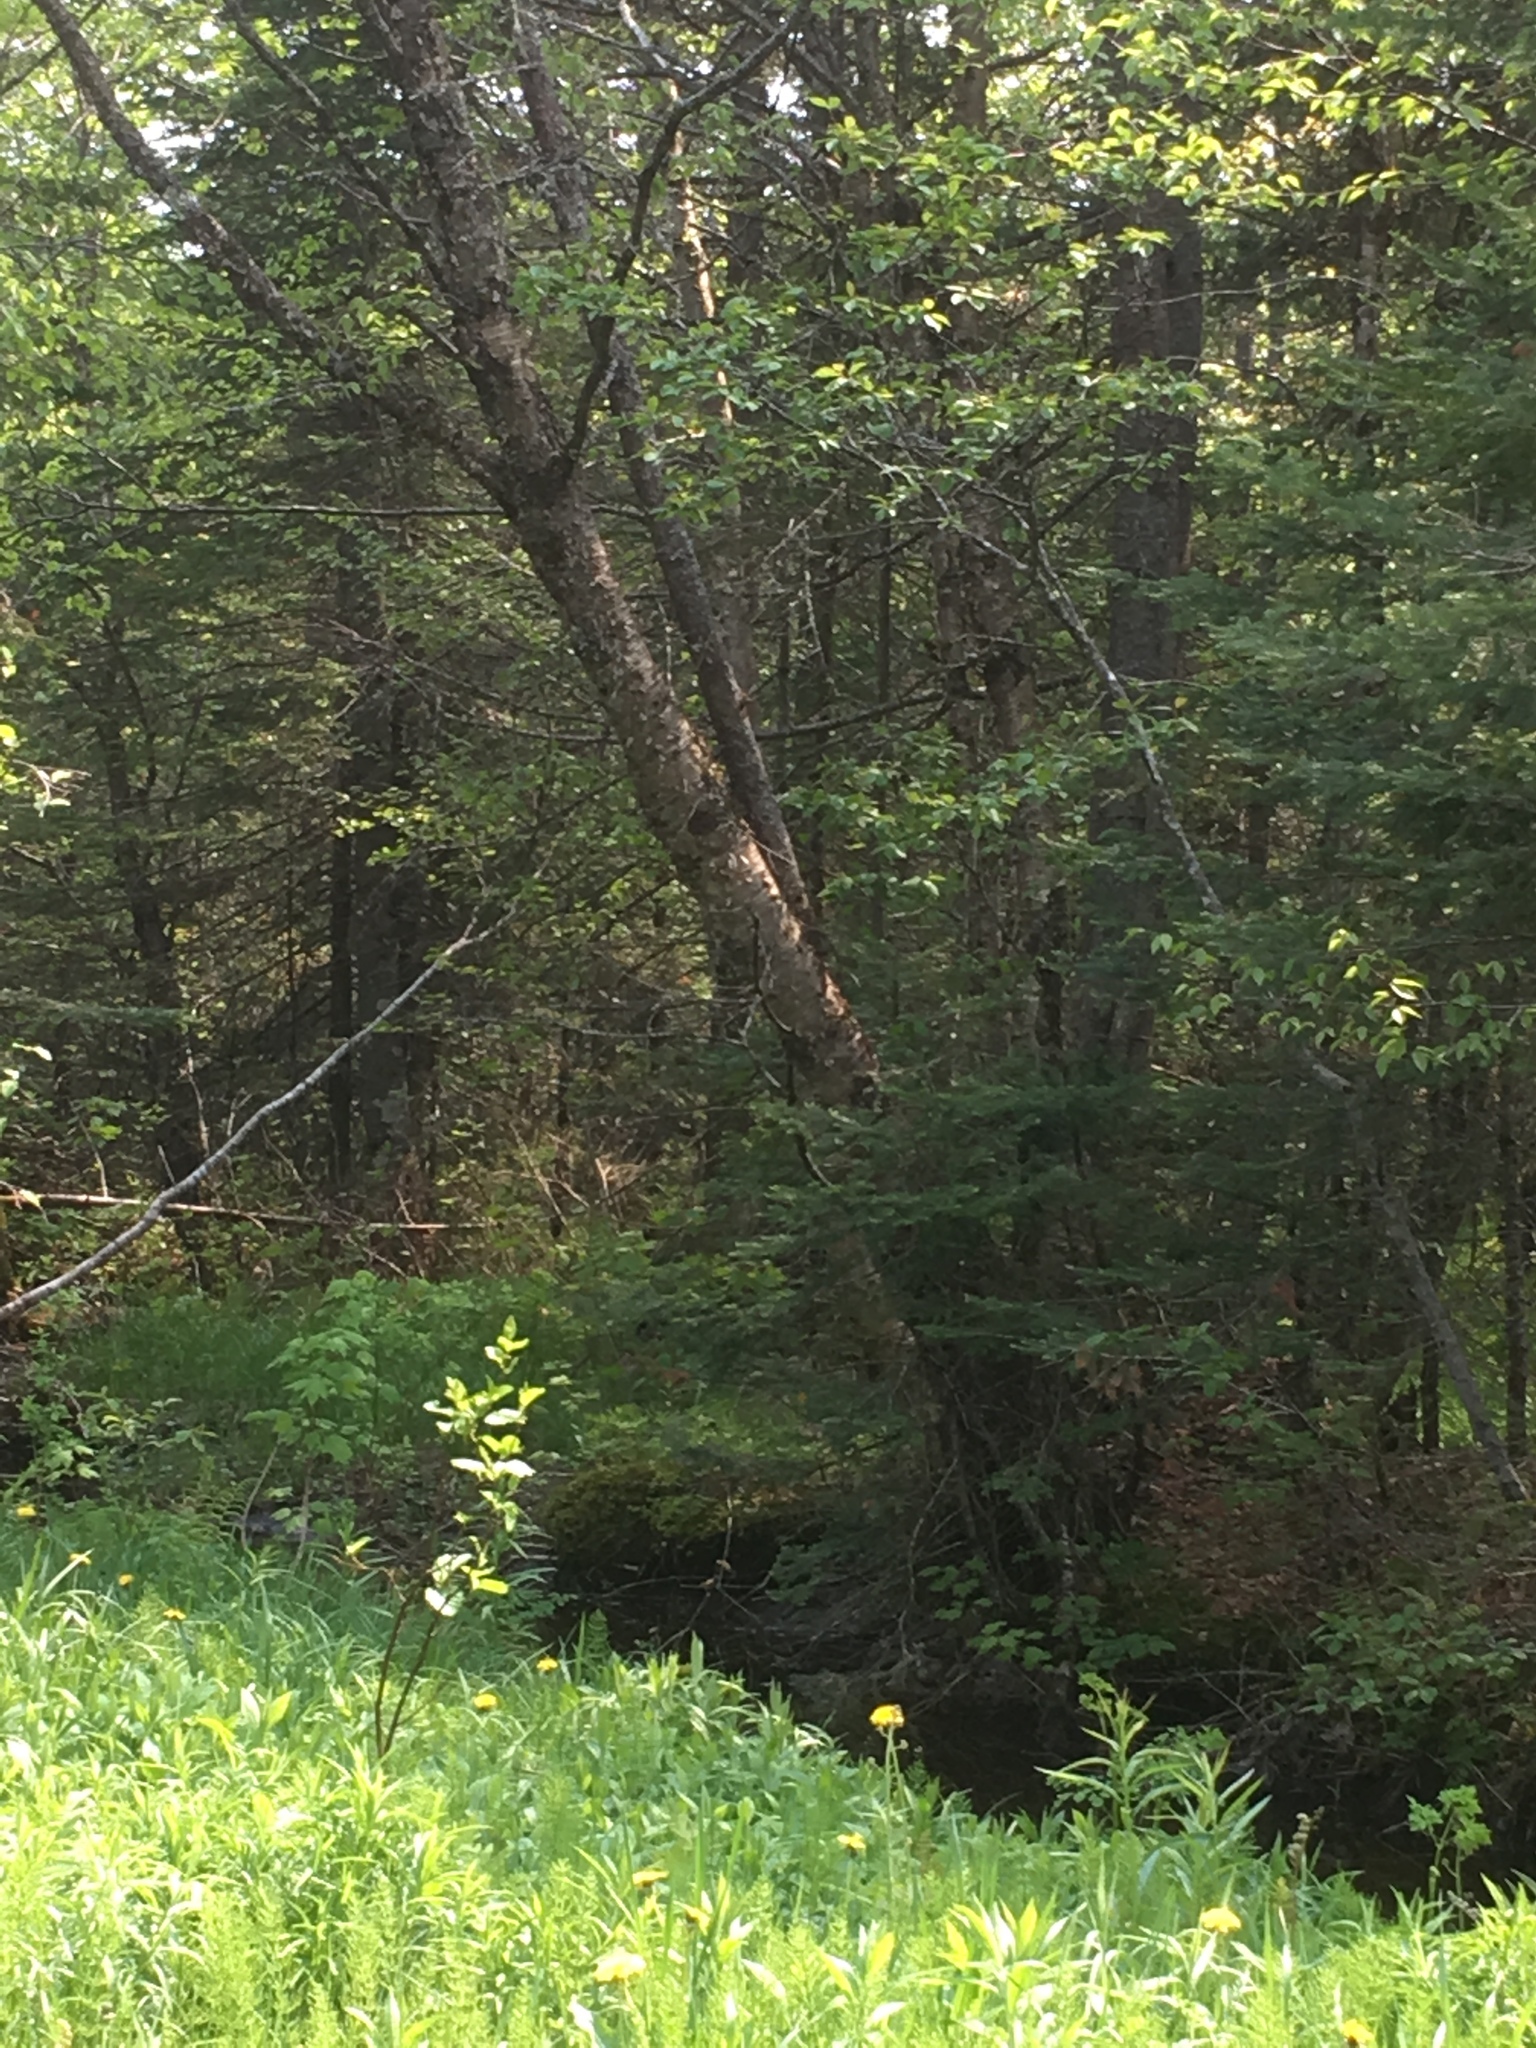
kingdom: Plantae
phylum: Tracheophyta
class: Magnoliopsida
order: Fagales
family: Betulaceae
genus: Betula
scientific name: Betula alleghaniensis
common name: Yellow birch
